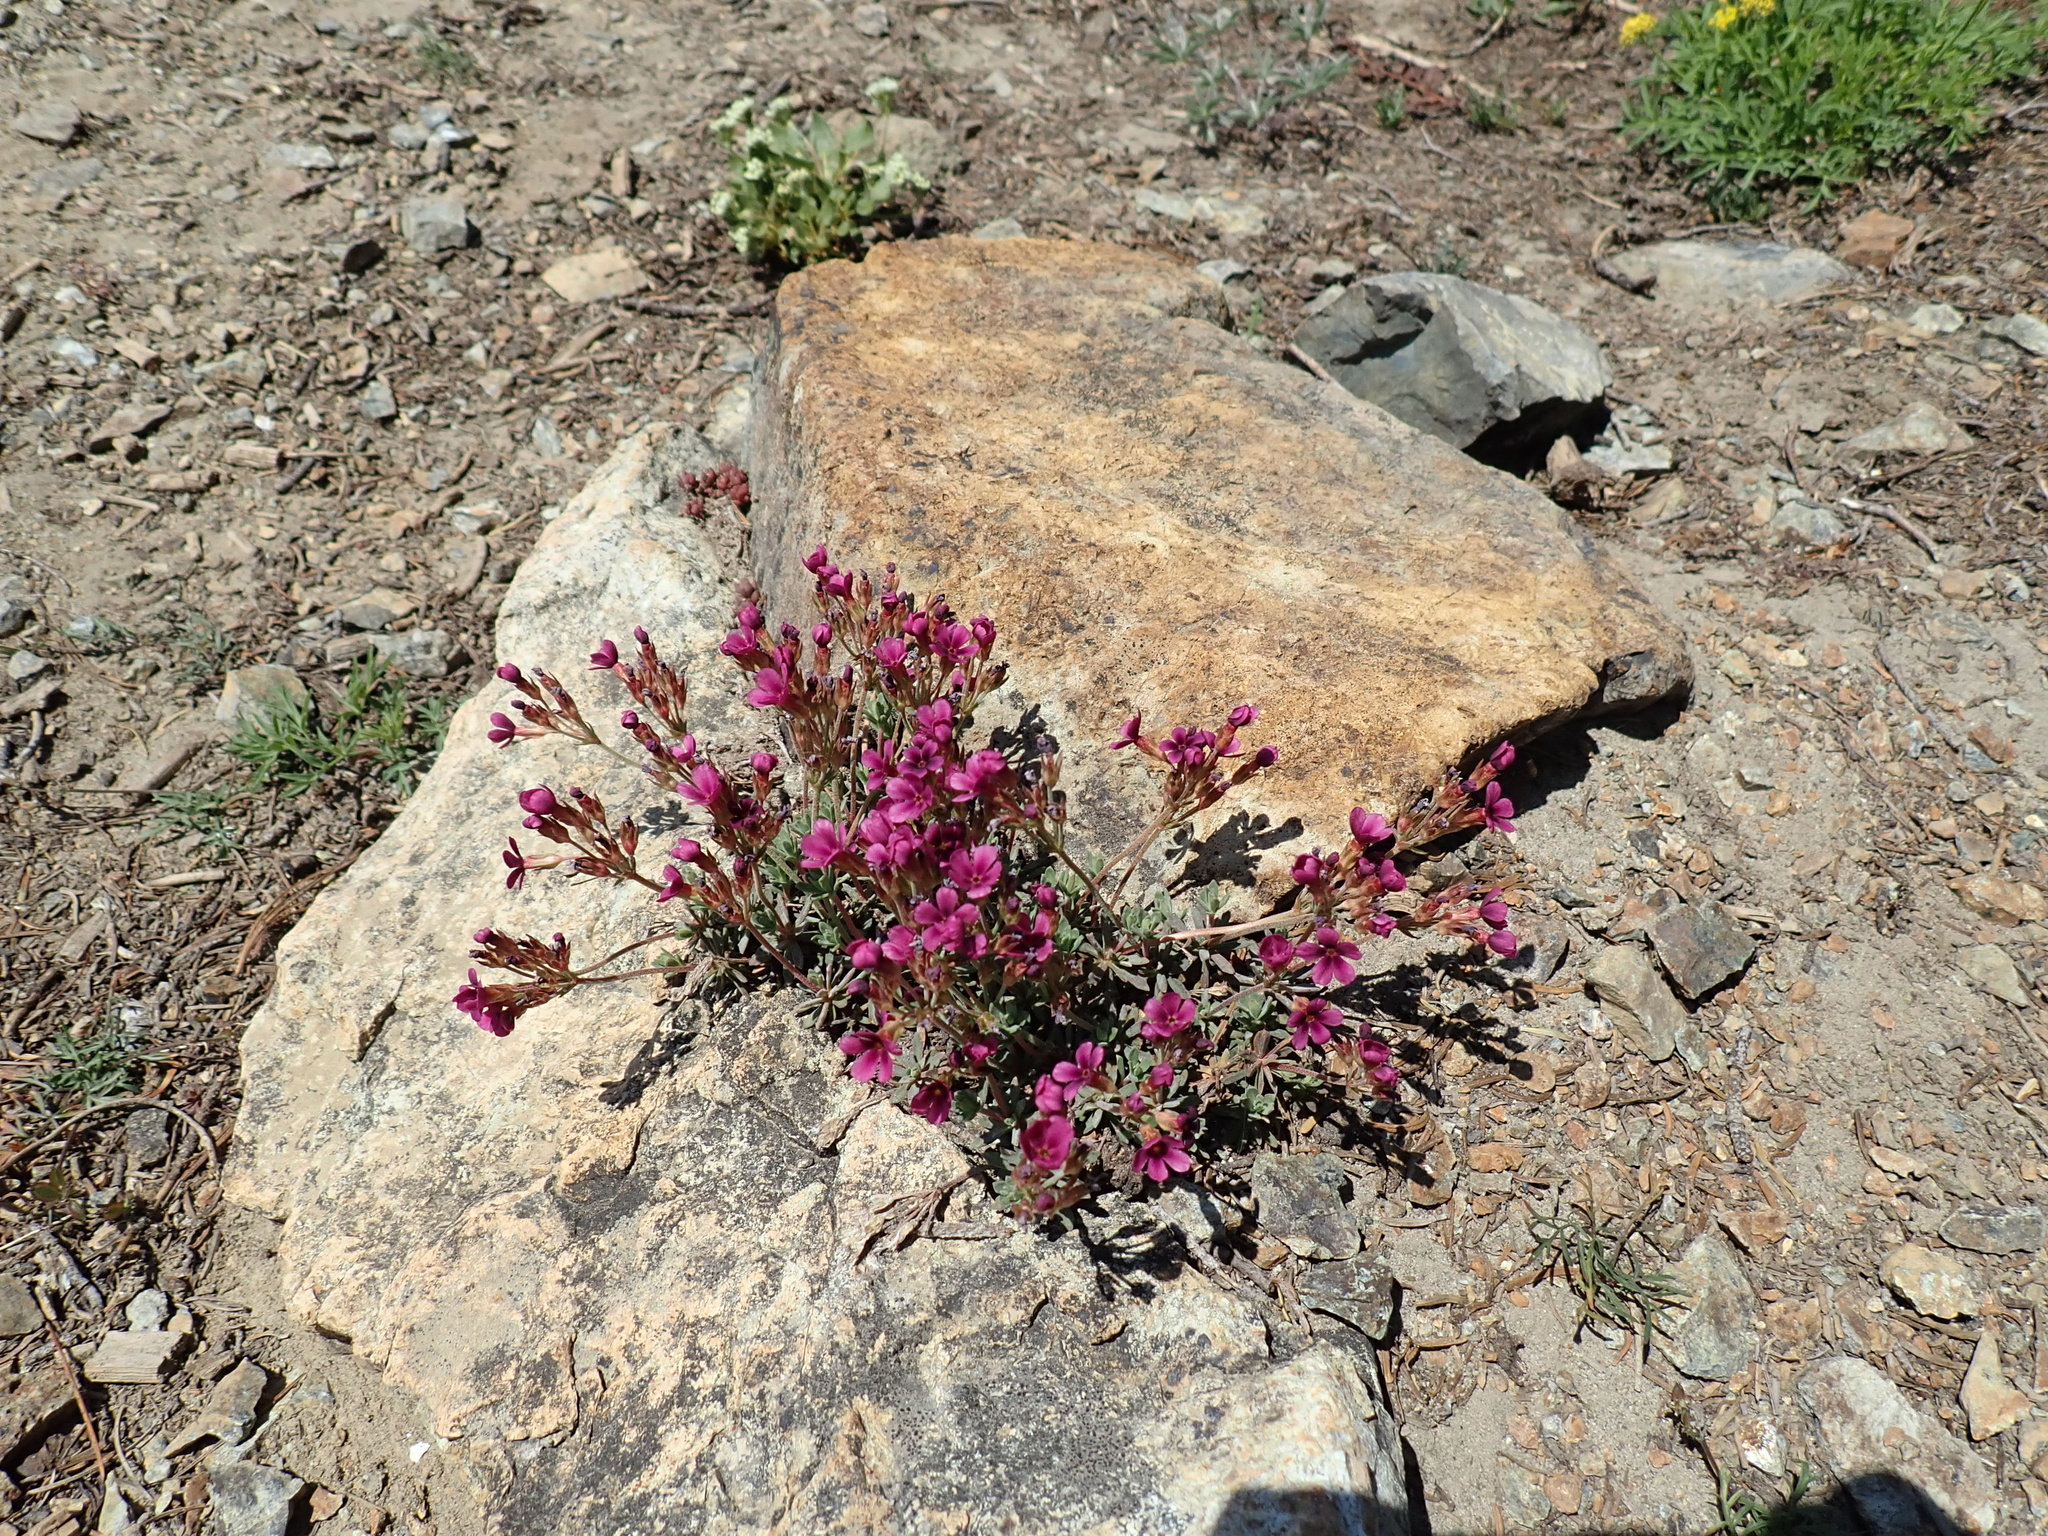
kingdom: Plantae
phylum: Tracheophyta
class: Magnoliopsida
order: Ericales
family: Primulaceae
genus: Androsace
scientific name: Androsace nivalis
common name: Snow dwarf-primrose
